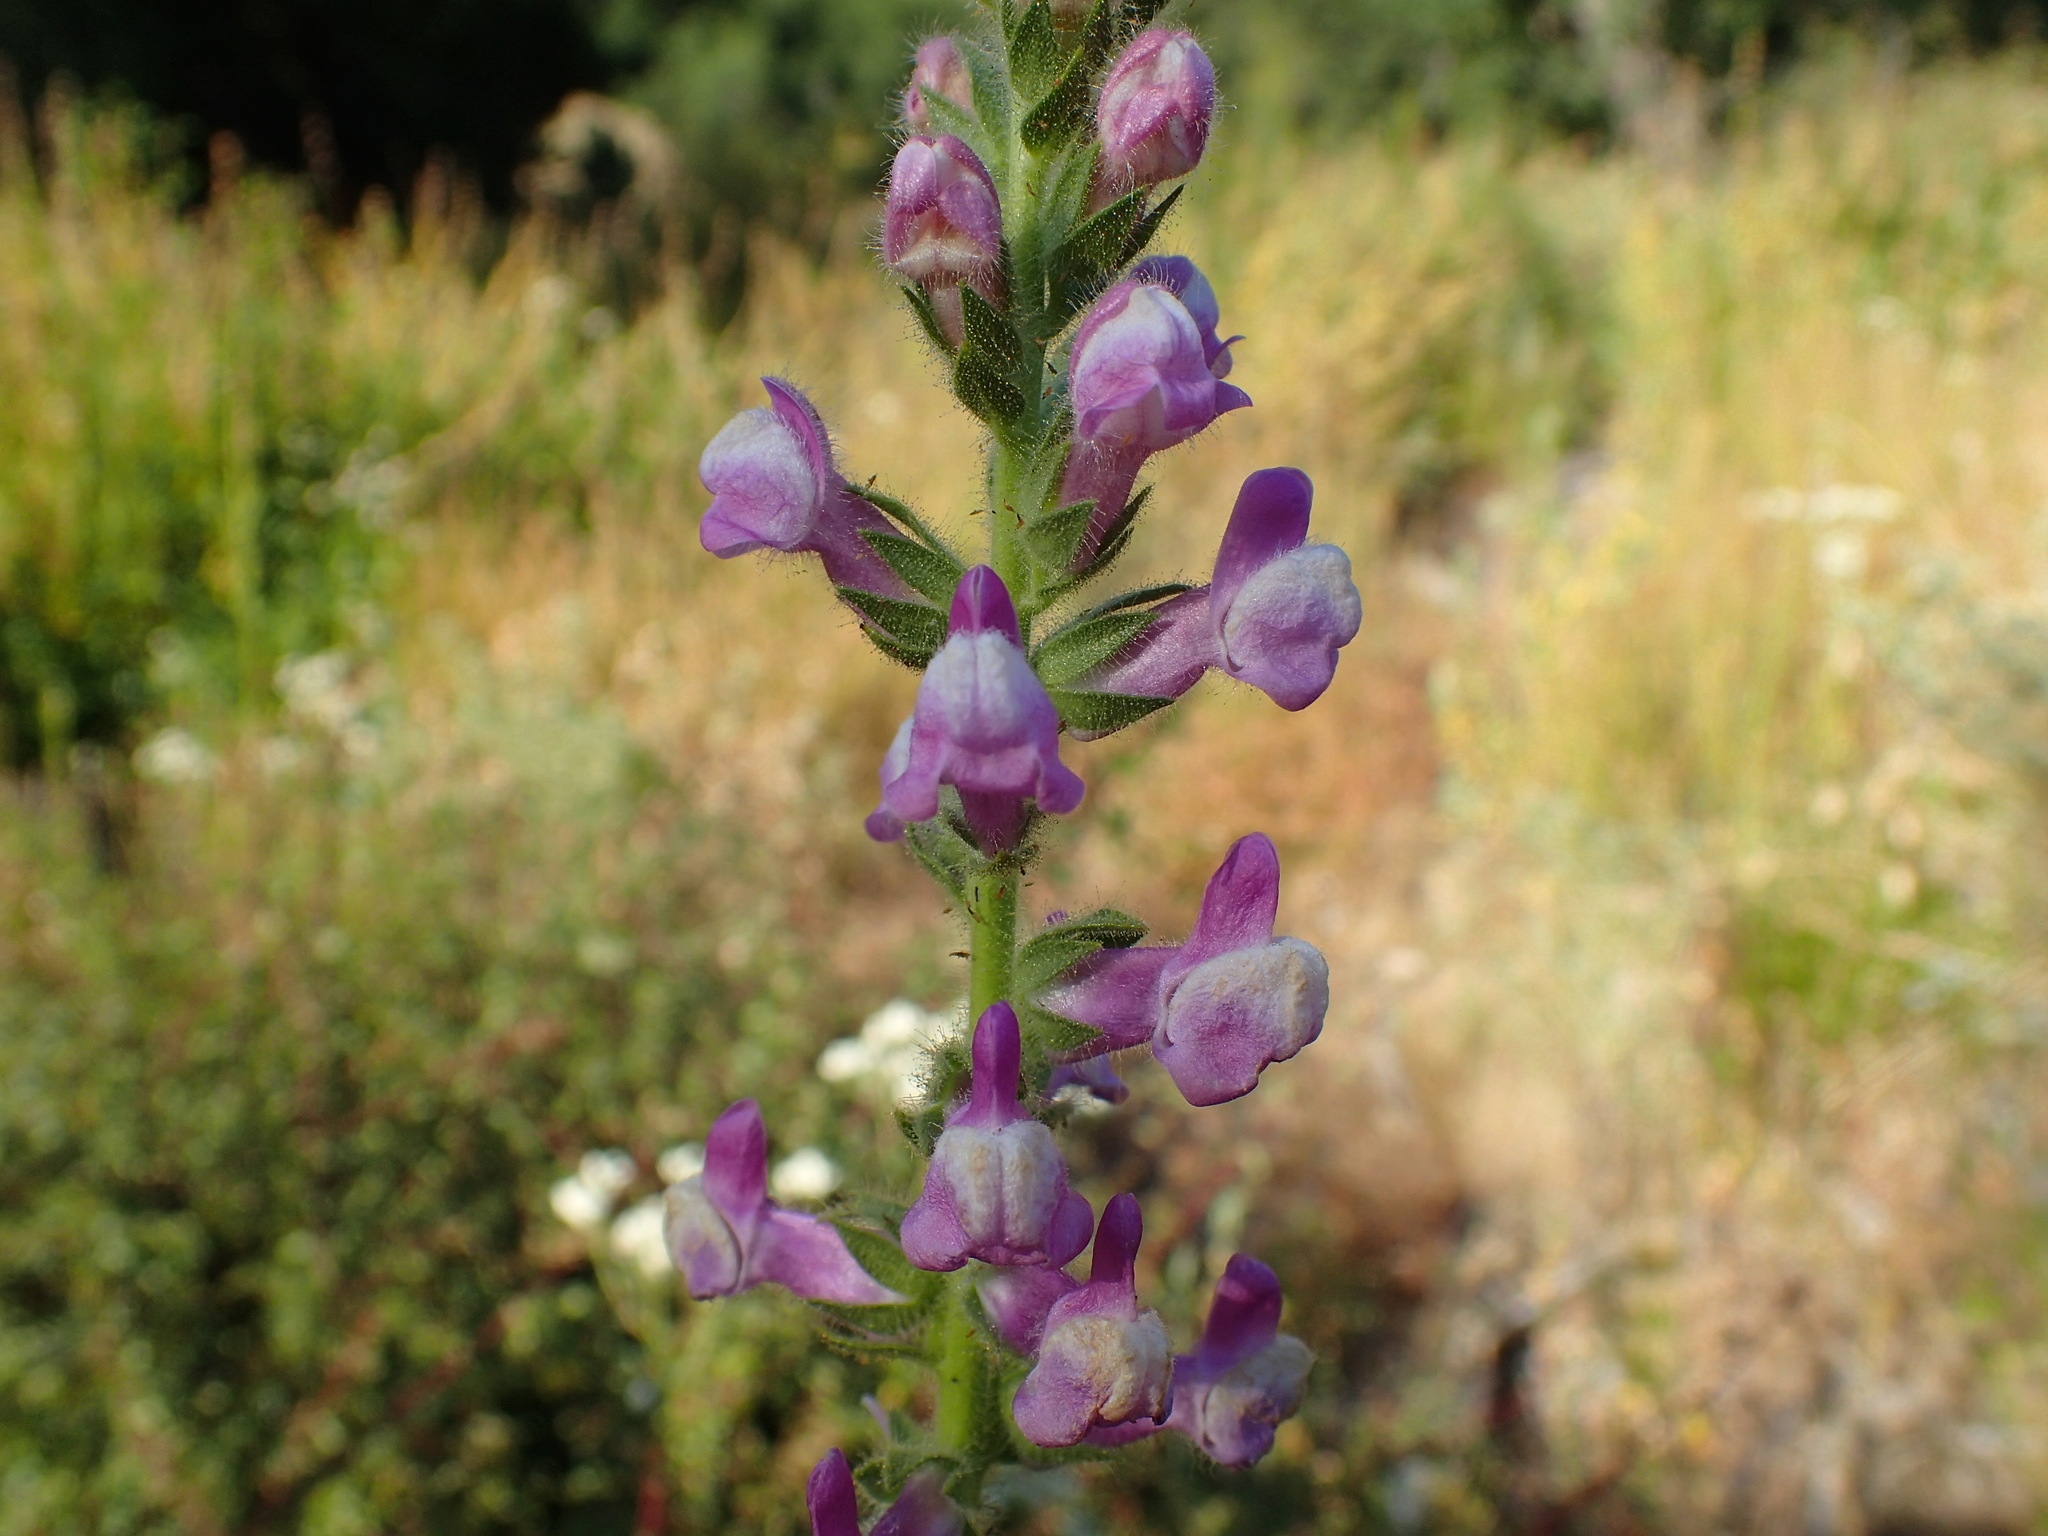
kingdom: Plantae
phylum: Tracheophyta
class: Magnoliopsida
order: Lamiales
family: Plantaginaceae
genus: Sairocarpus
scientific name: Sairocarpus multiflorus
